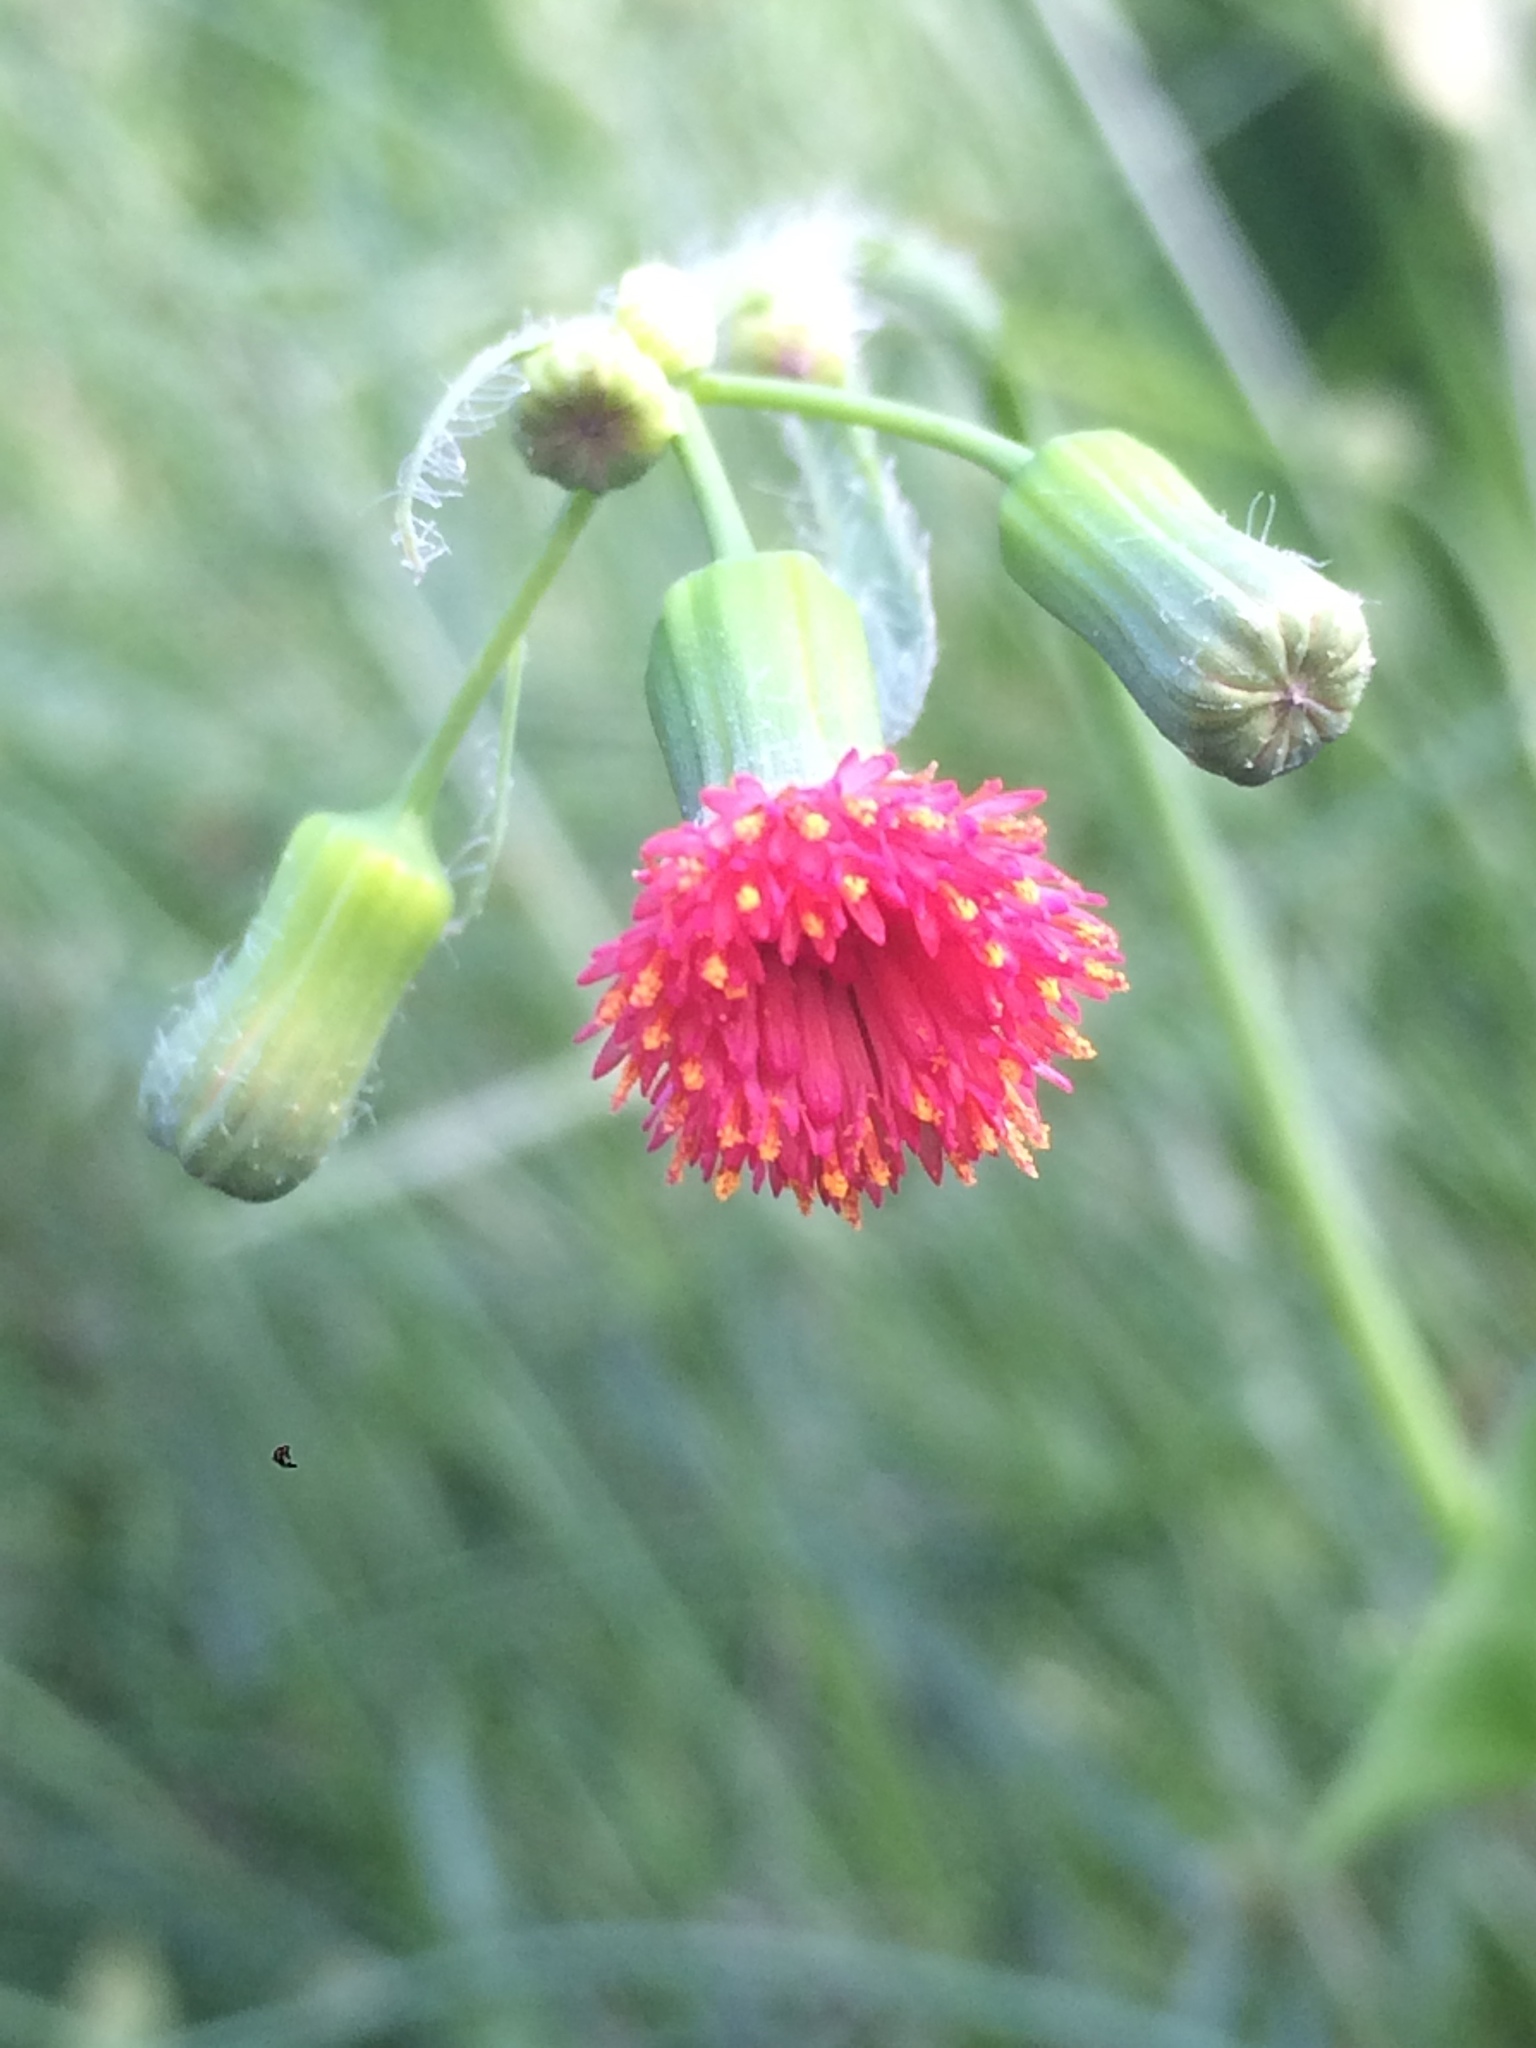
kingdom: Plantae
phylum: Tracheophyta
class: Magnoliopsida
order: Asterales
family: Asteraceae
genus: Emilia
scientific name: Emilia fosbergii
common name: Florida tasselflower
